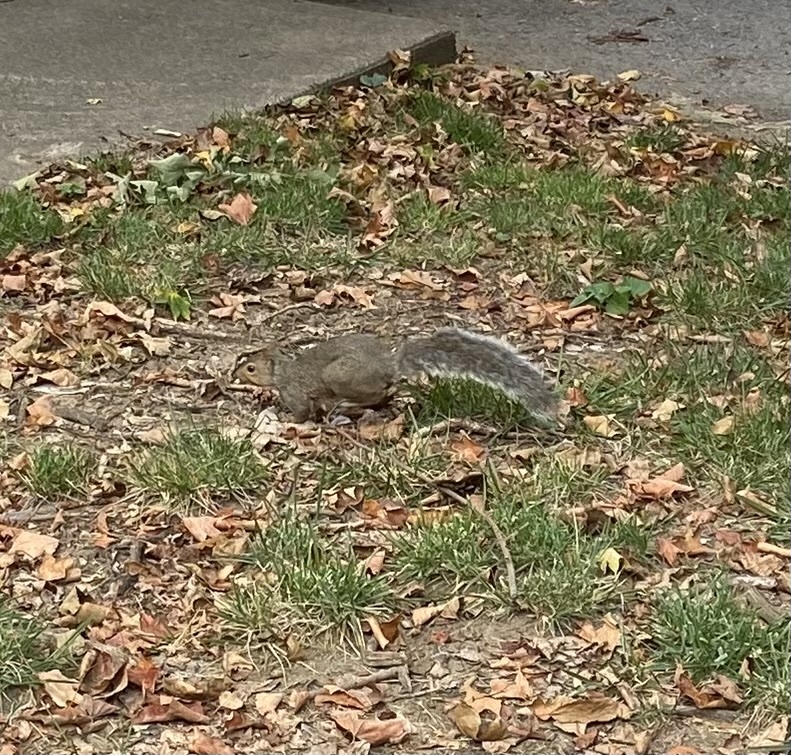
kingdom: Animalia
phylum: Chordata
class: Mammalia
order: Rodentia
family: Sciuridae
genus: Sciurus
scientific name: Sciurus carolinensis
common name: Eastern gray squirrel
